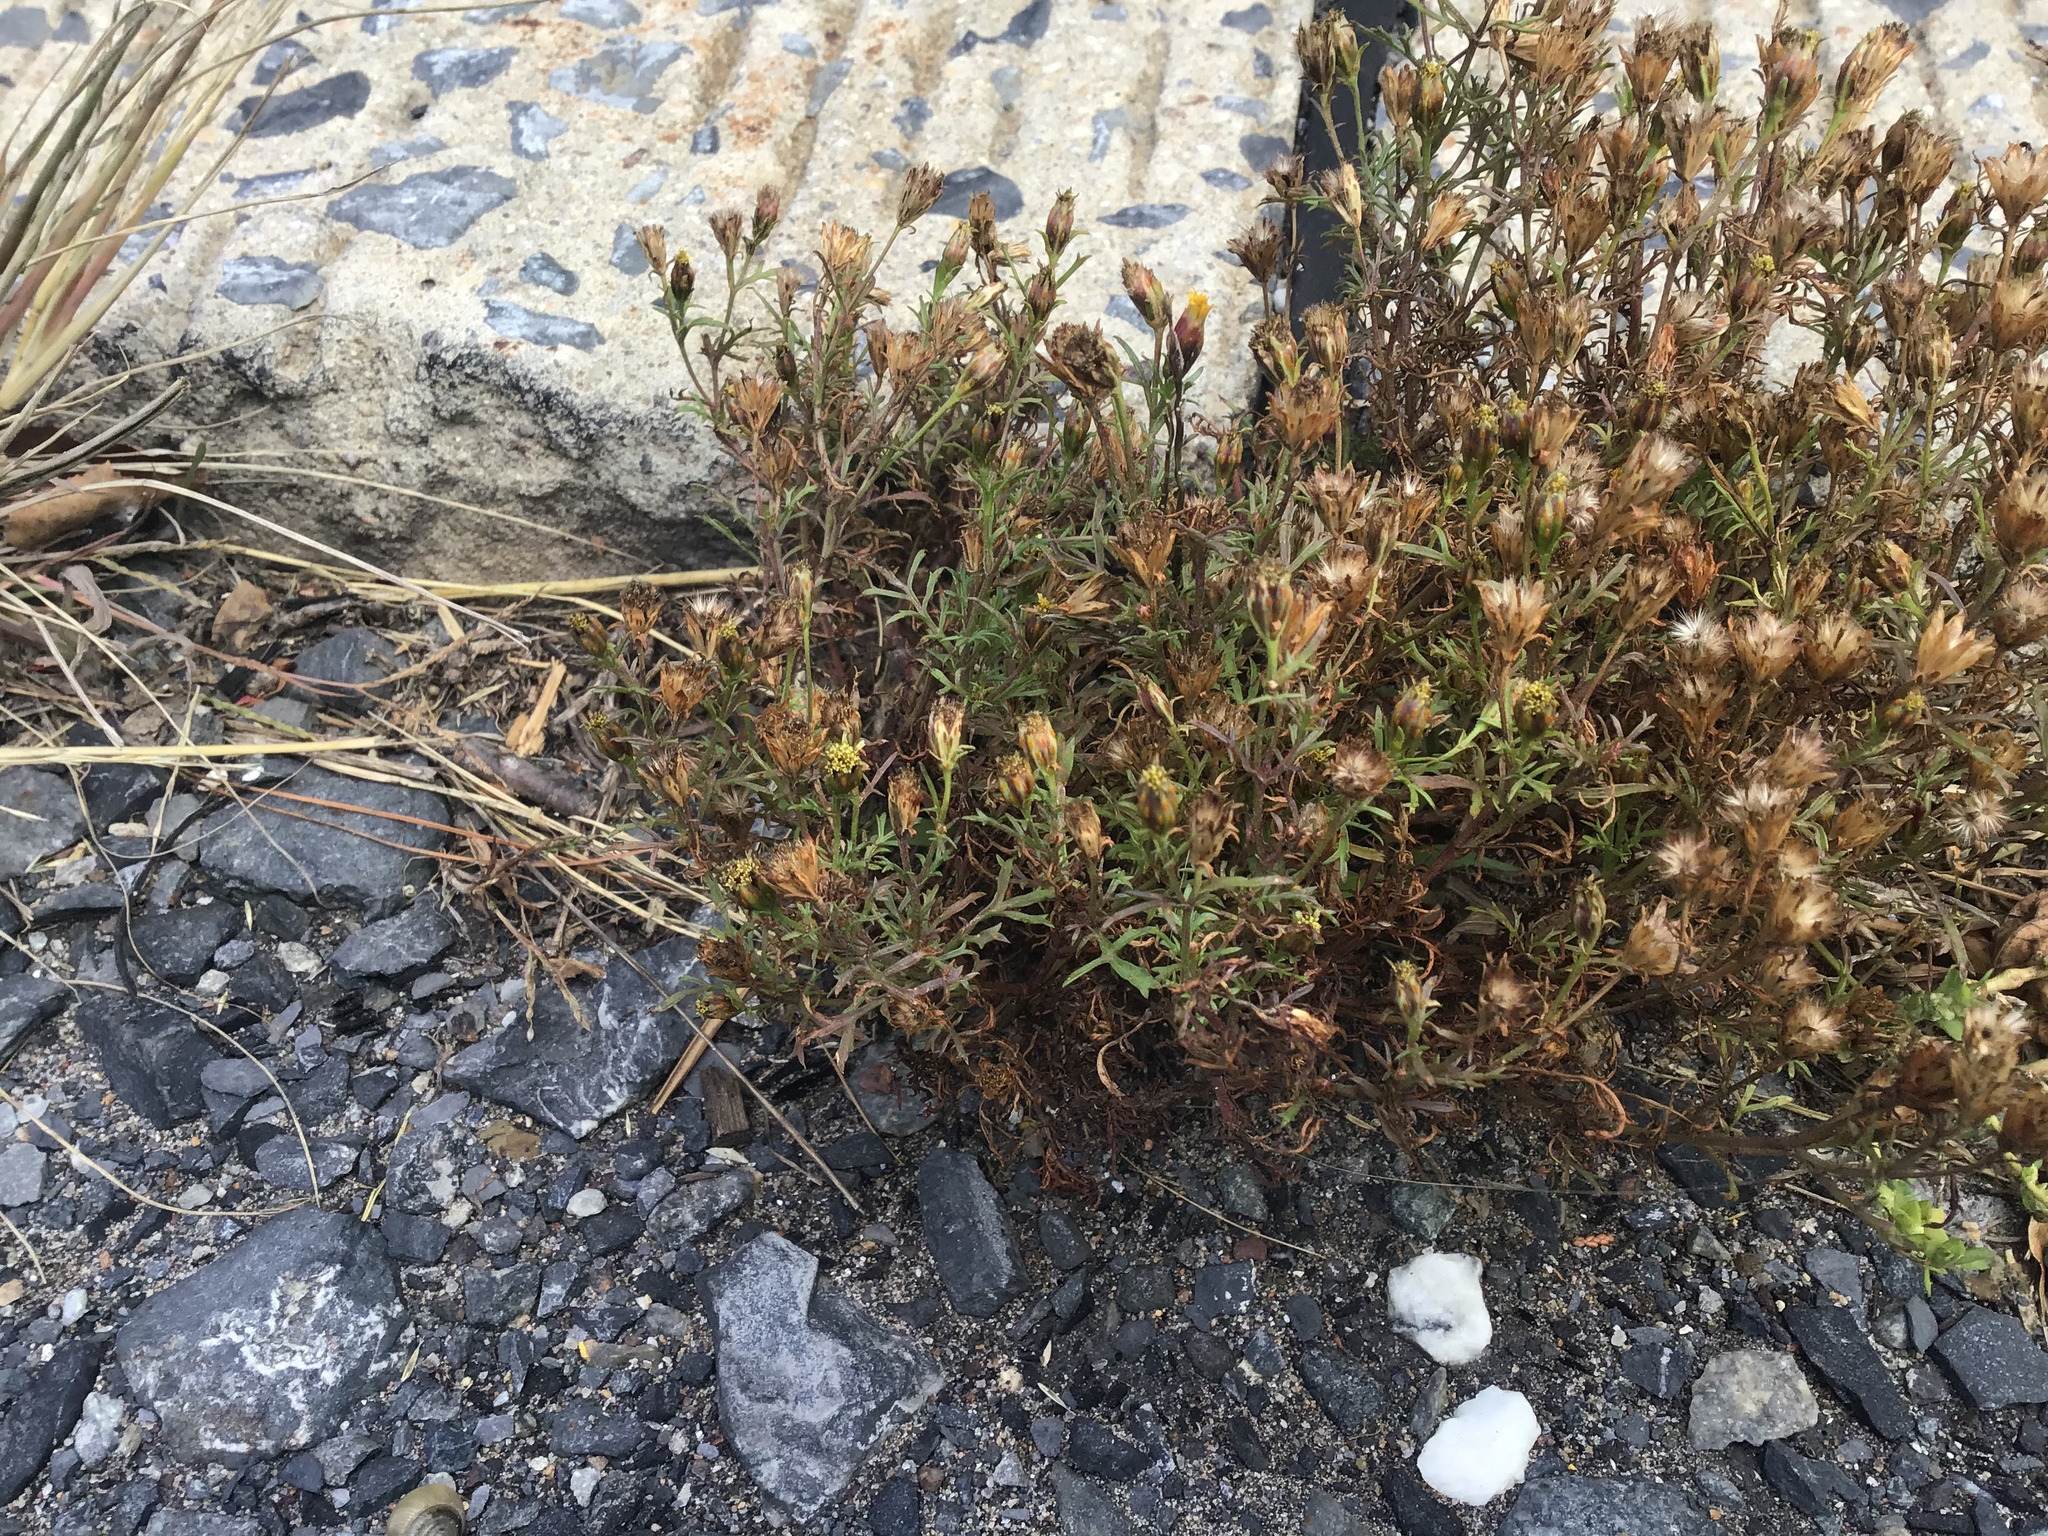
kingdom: Plantae
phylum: Tracheophyta
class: Magnoliopsida
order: Asterales
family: Asteraceae
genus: Dyssodia
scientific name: Dyssodia papposa
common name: Dogweed
